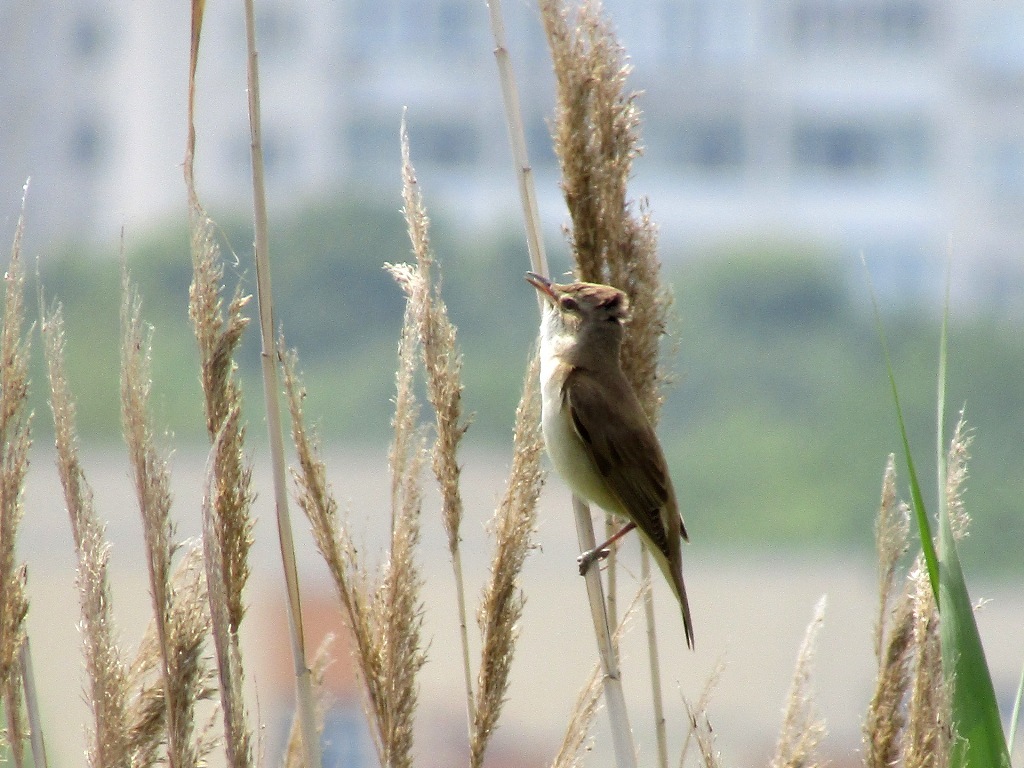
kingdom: Animalia
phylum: Chordata
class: Aves
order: Passeriformes
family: Acrocephalidae
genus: Acrocephalus
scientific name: Acrocephalus arundinaceus
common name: Great reed warbler
